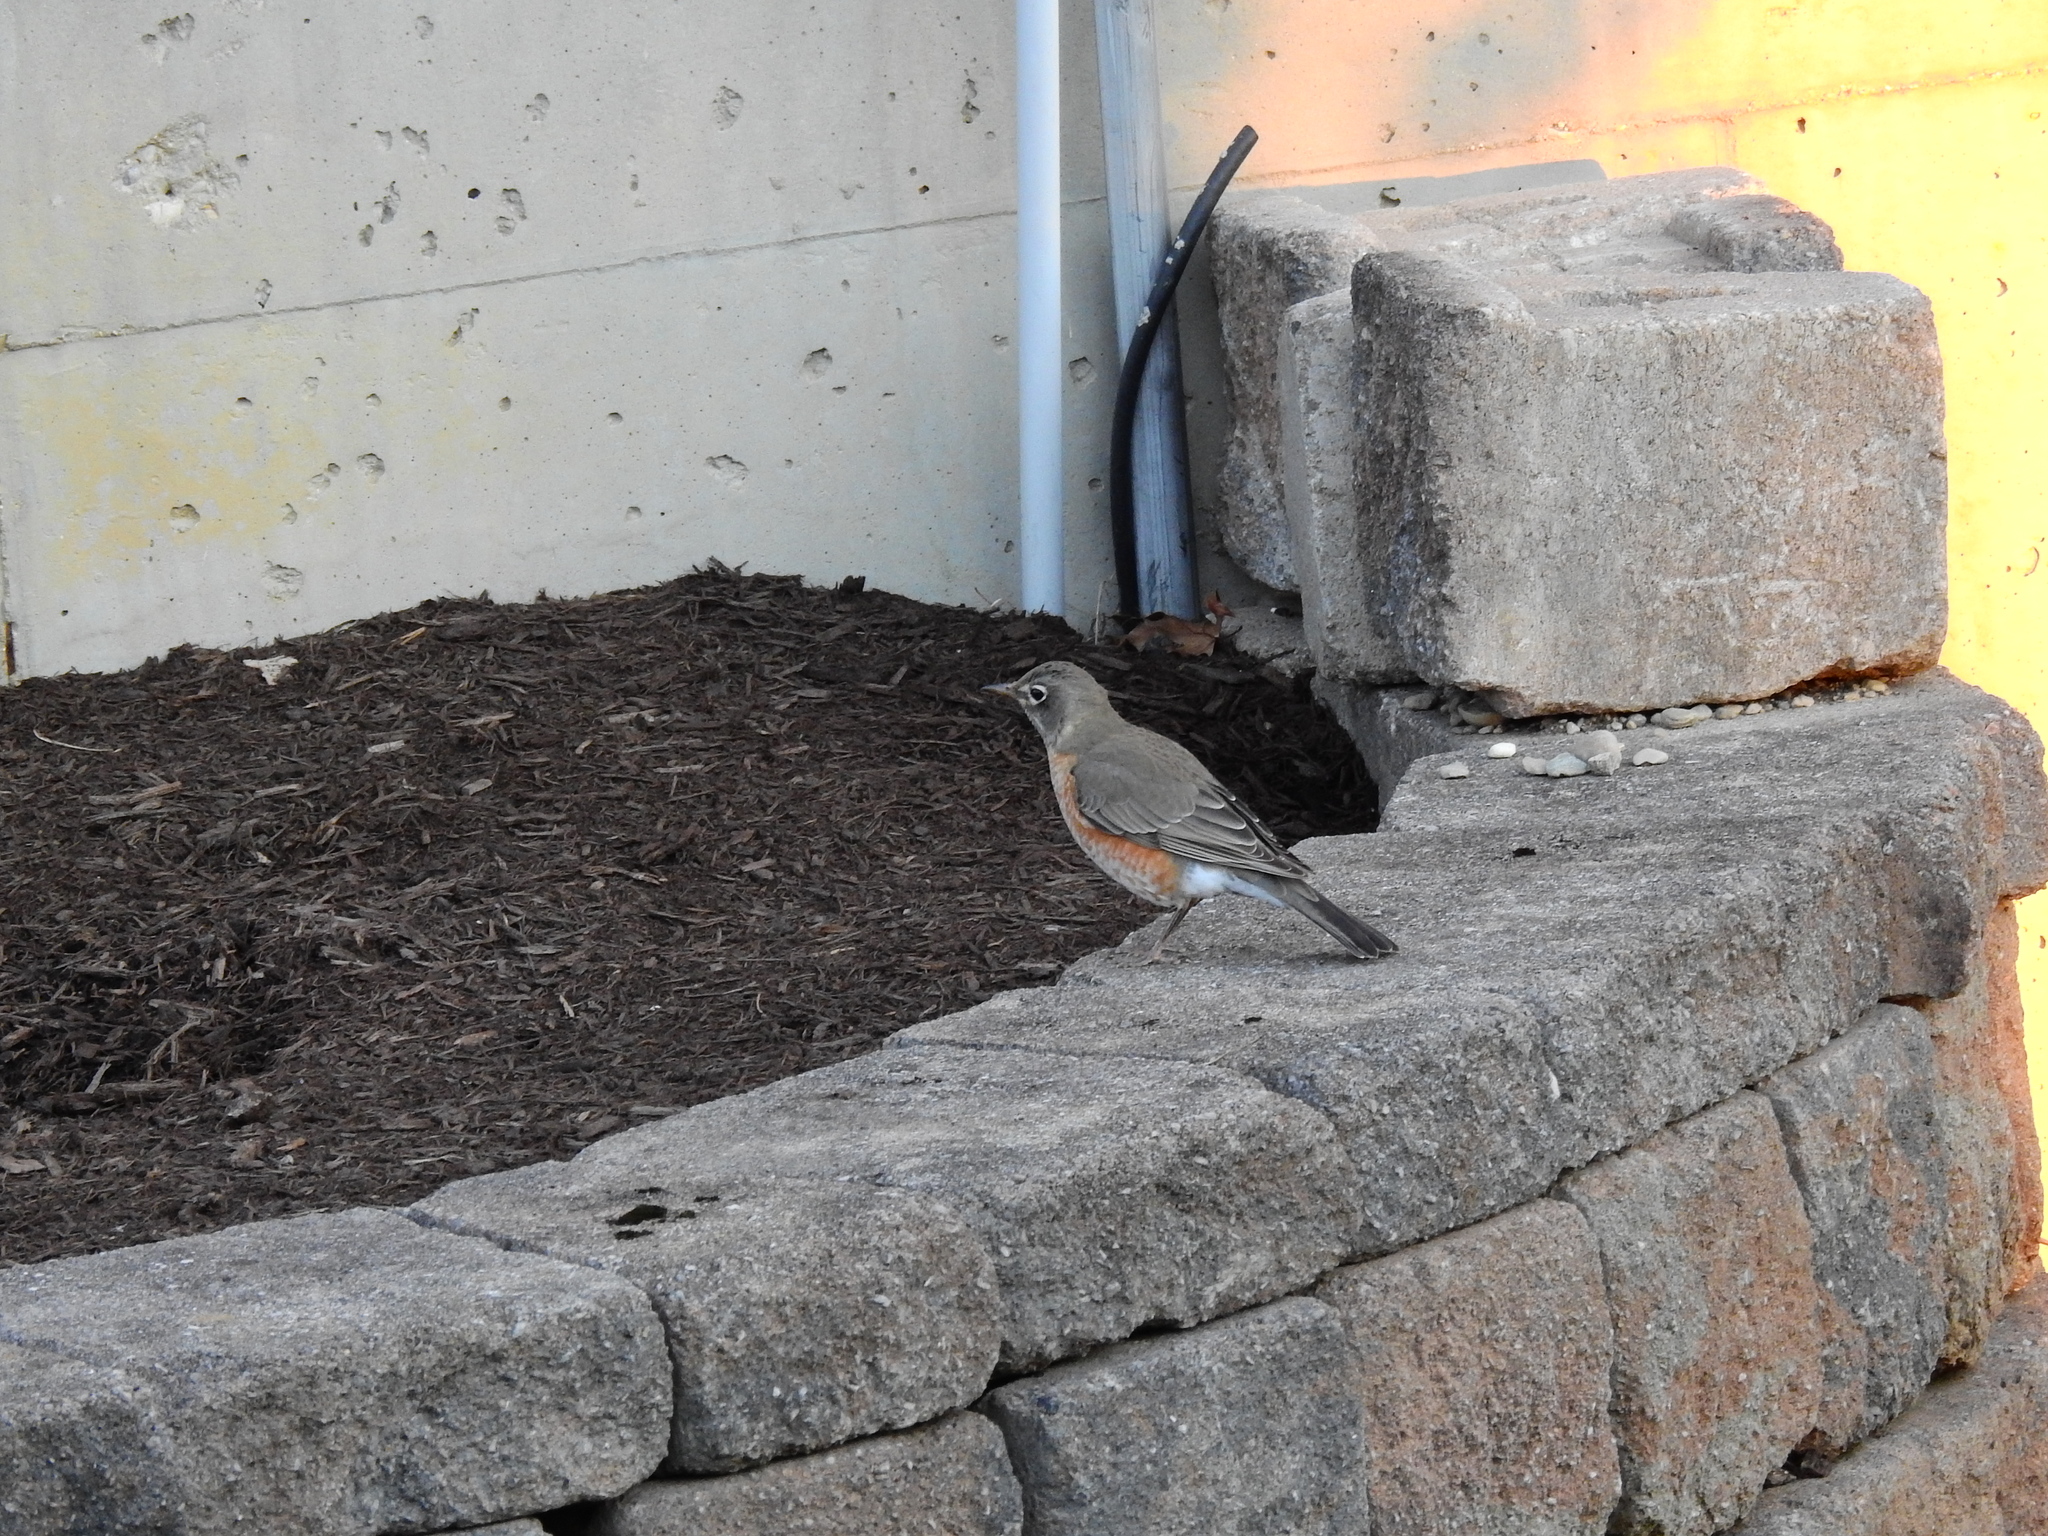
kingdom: Animalia
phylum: Chordata
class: Aves
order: Passeriformes
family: Turdidae
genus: Turdus
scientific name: Turdus migratorius
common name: American robin
